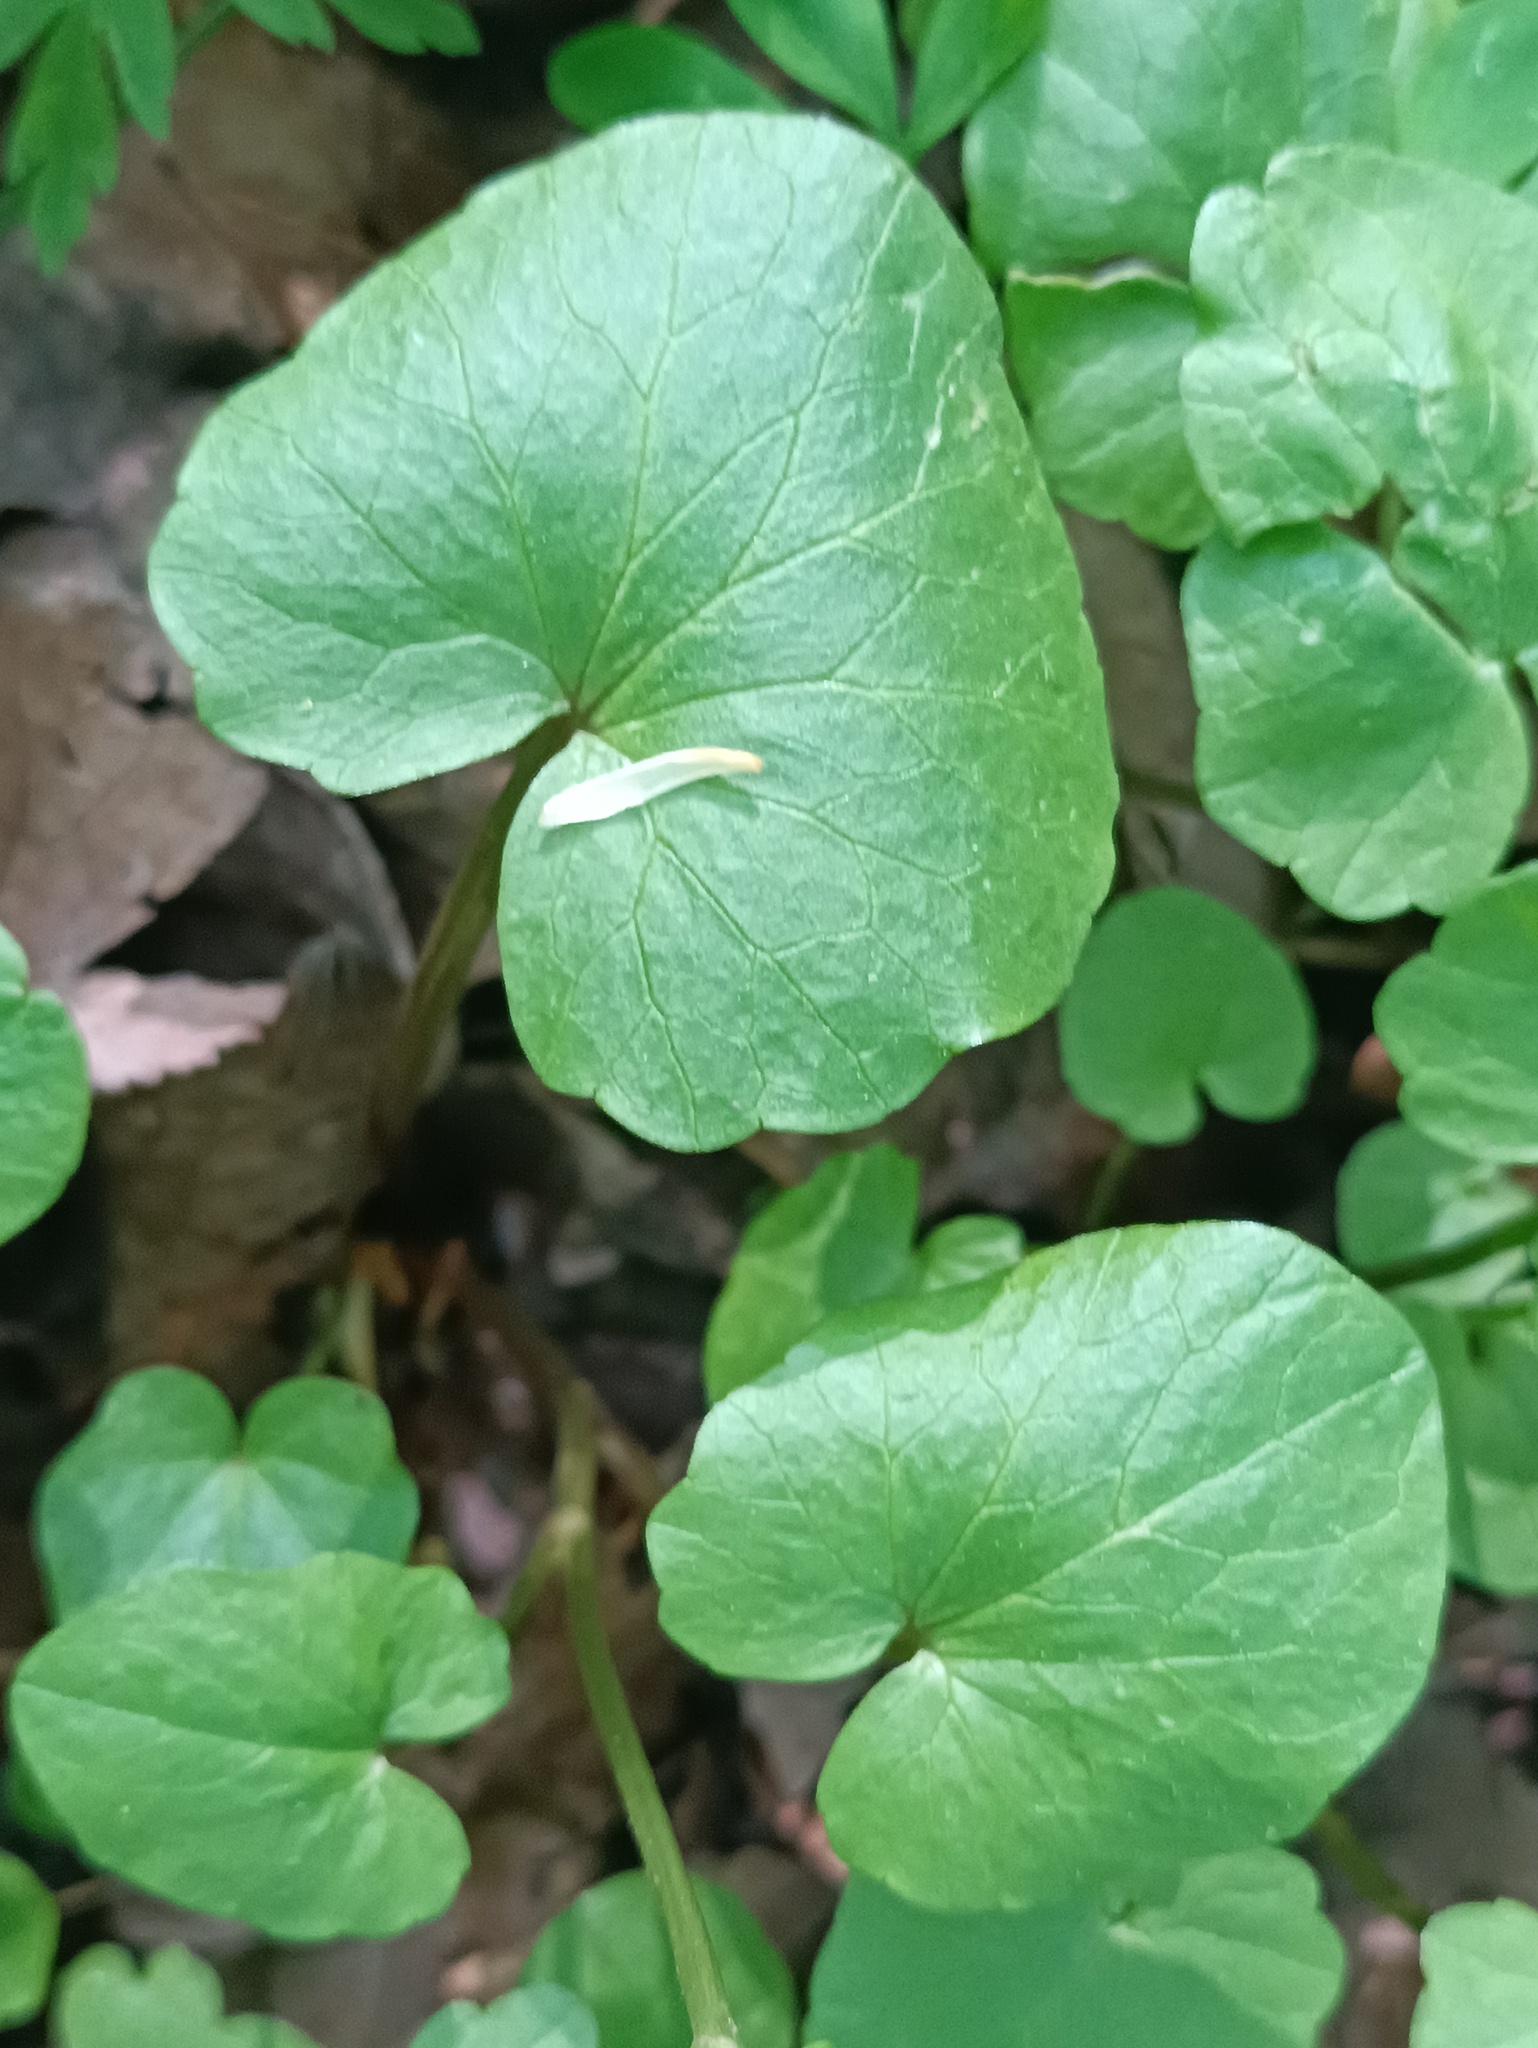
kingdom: Plantae
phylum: Tracheophyta
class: Magnoliopsida
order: Ranunculales
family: Ranunculaceae
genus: Ficaria
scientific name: Ficaria verna
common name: Lesser celandine
